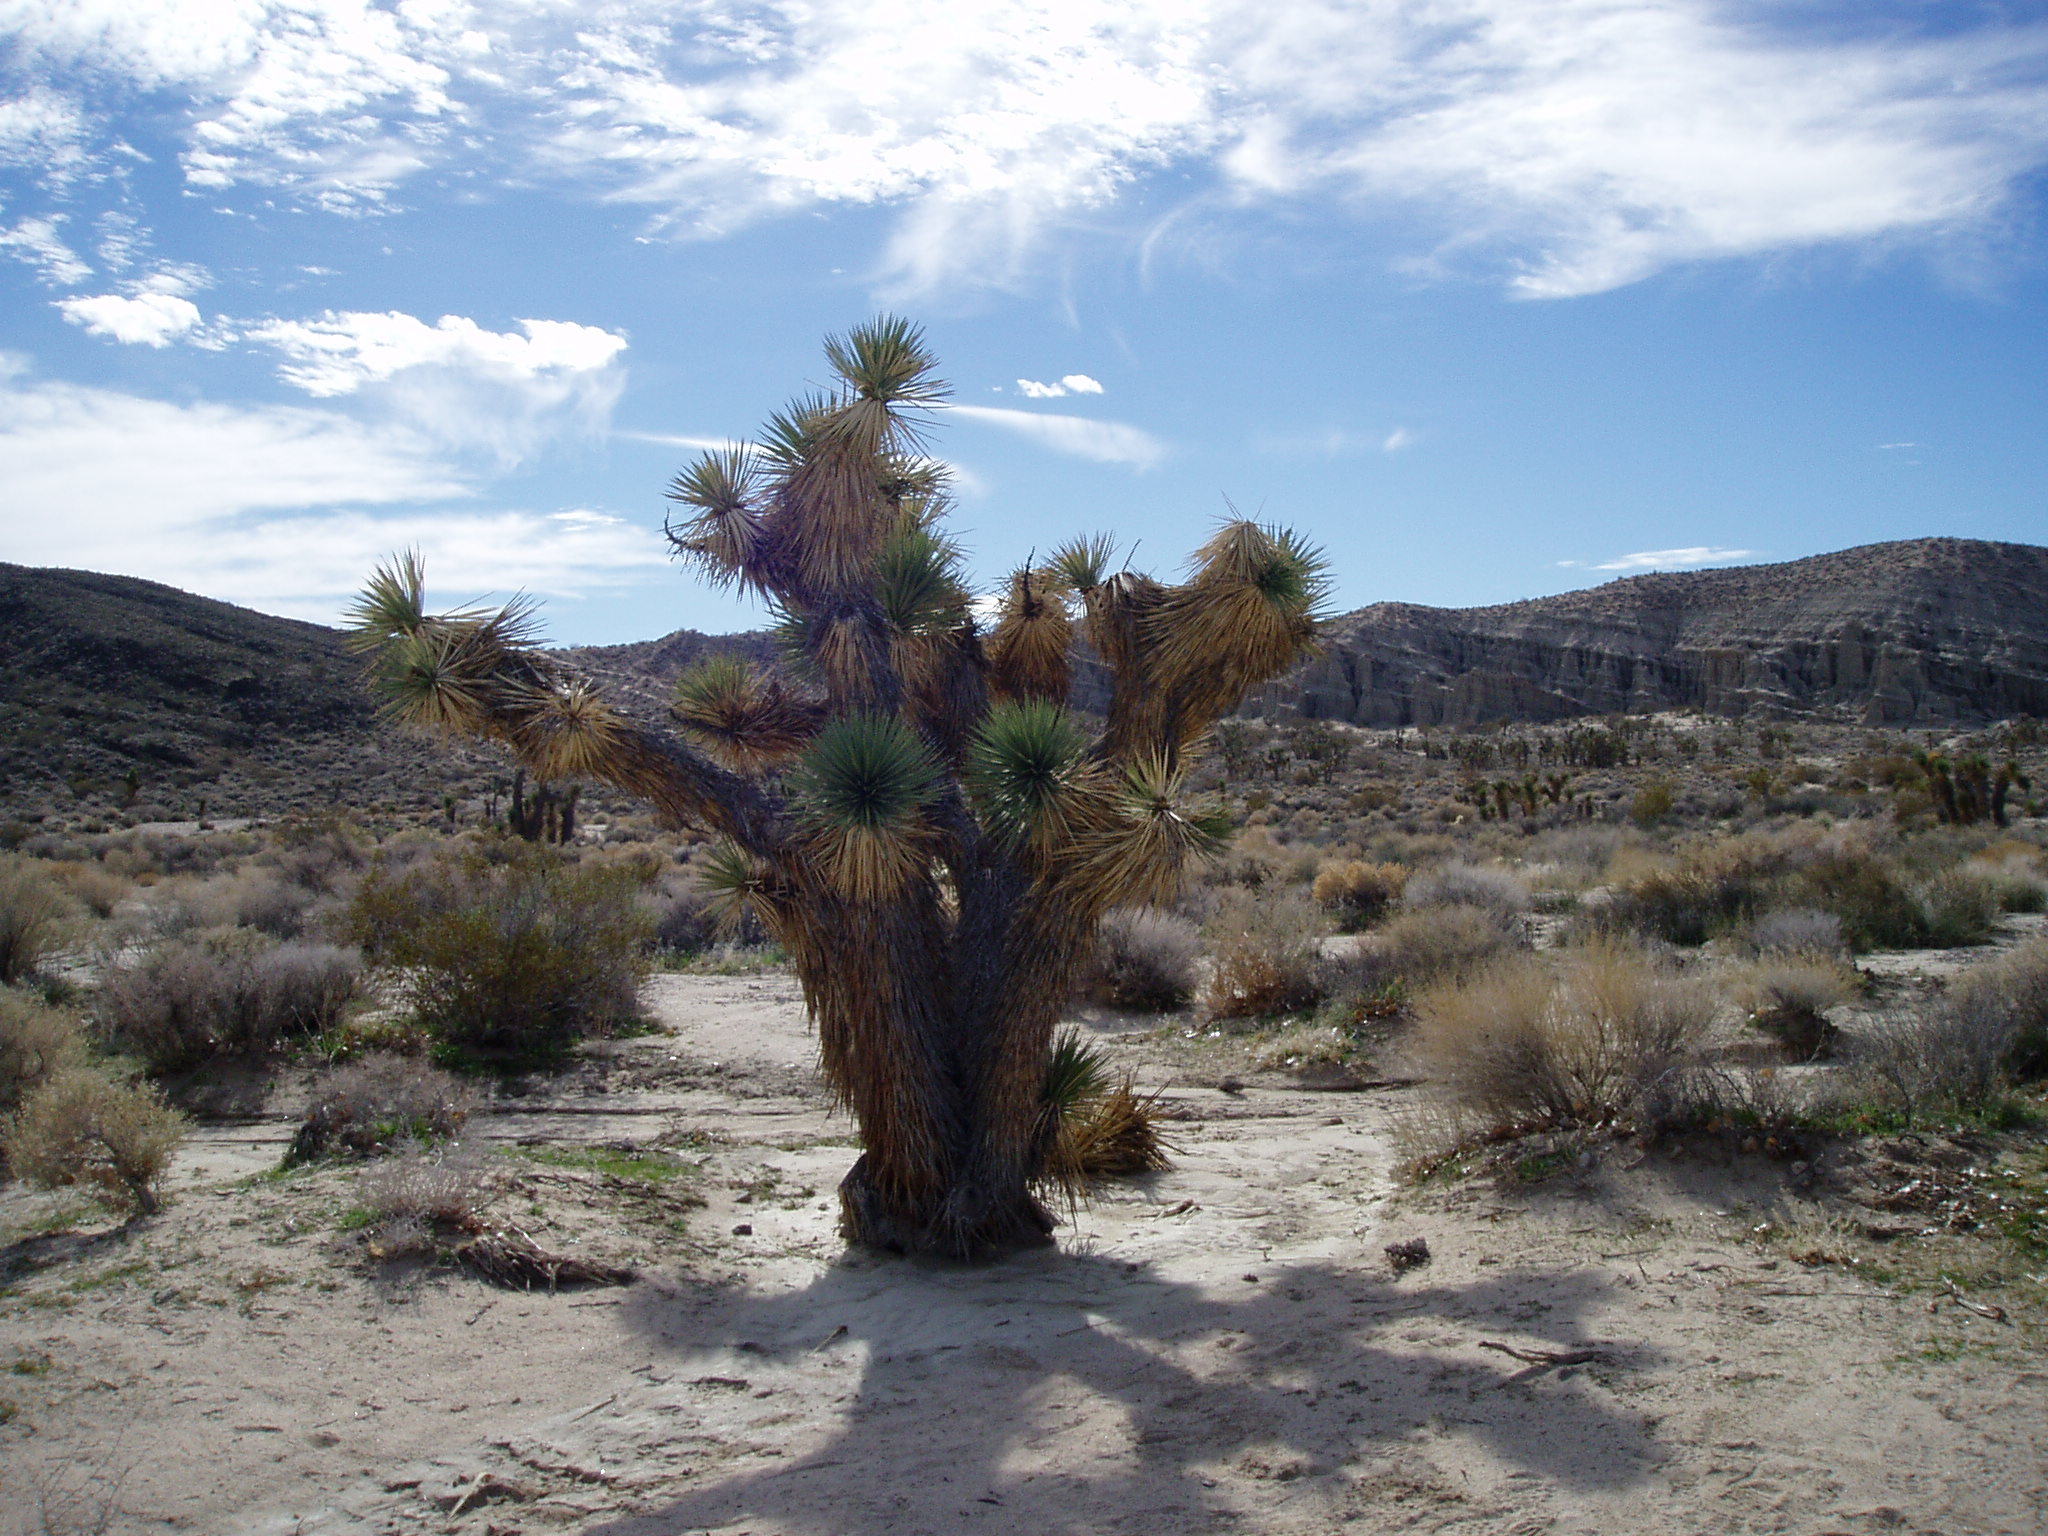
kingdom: Plantae
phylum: Tracheophyta
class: Liliopsida
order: Asparagales
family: Asparagaceae
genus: Yucca
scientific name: Yucca brevifolia
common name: Joshua tree
